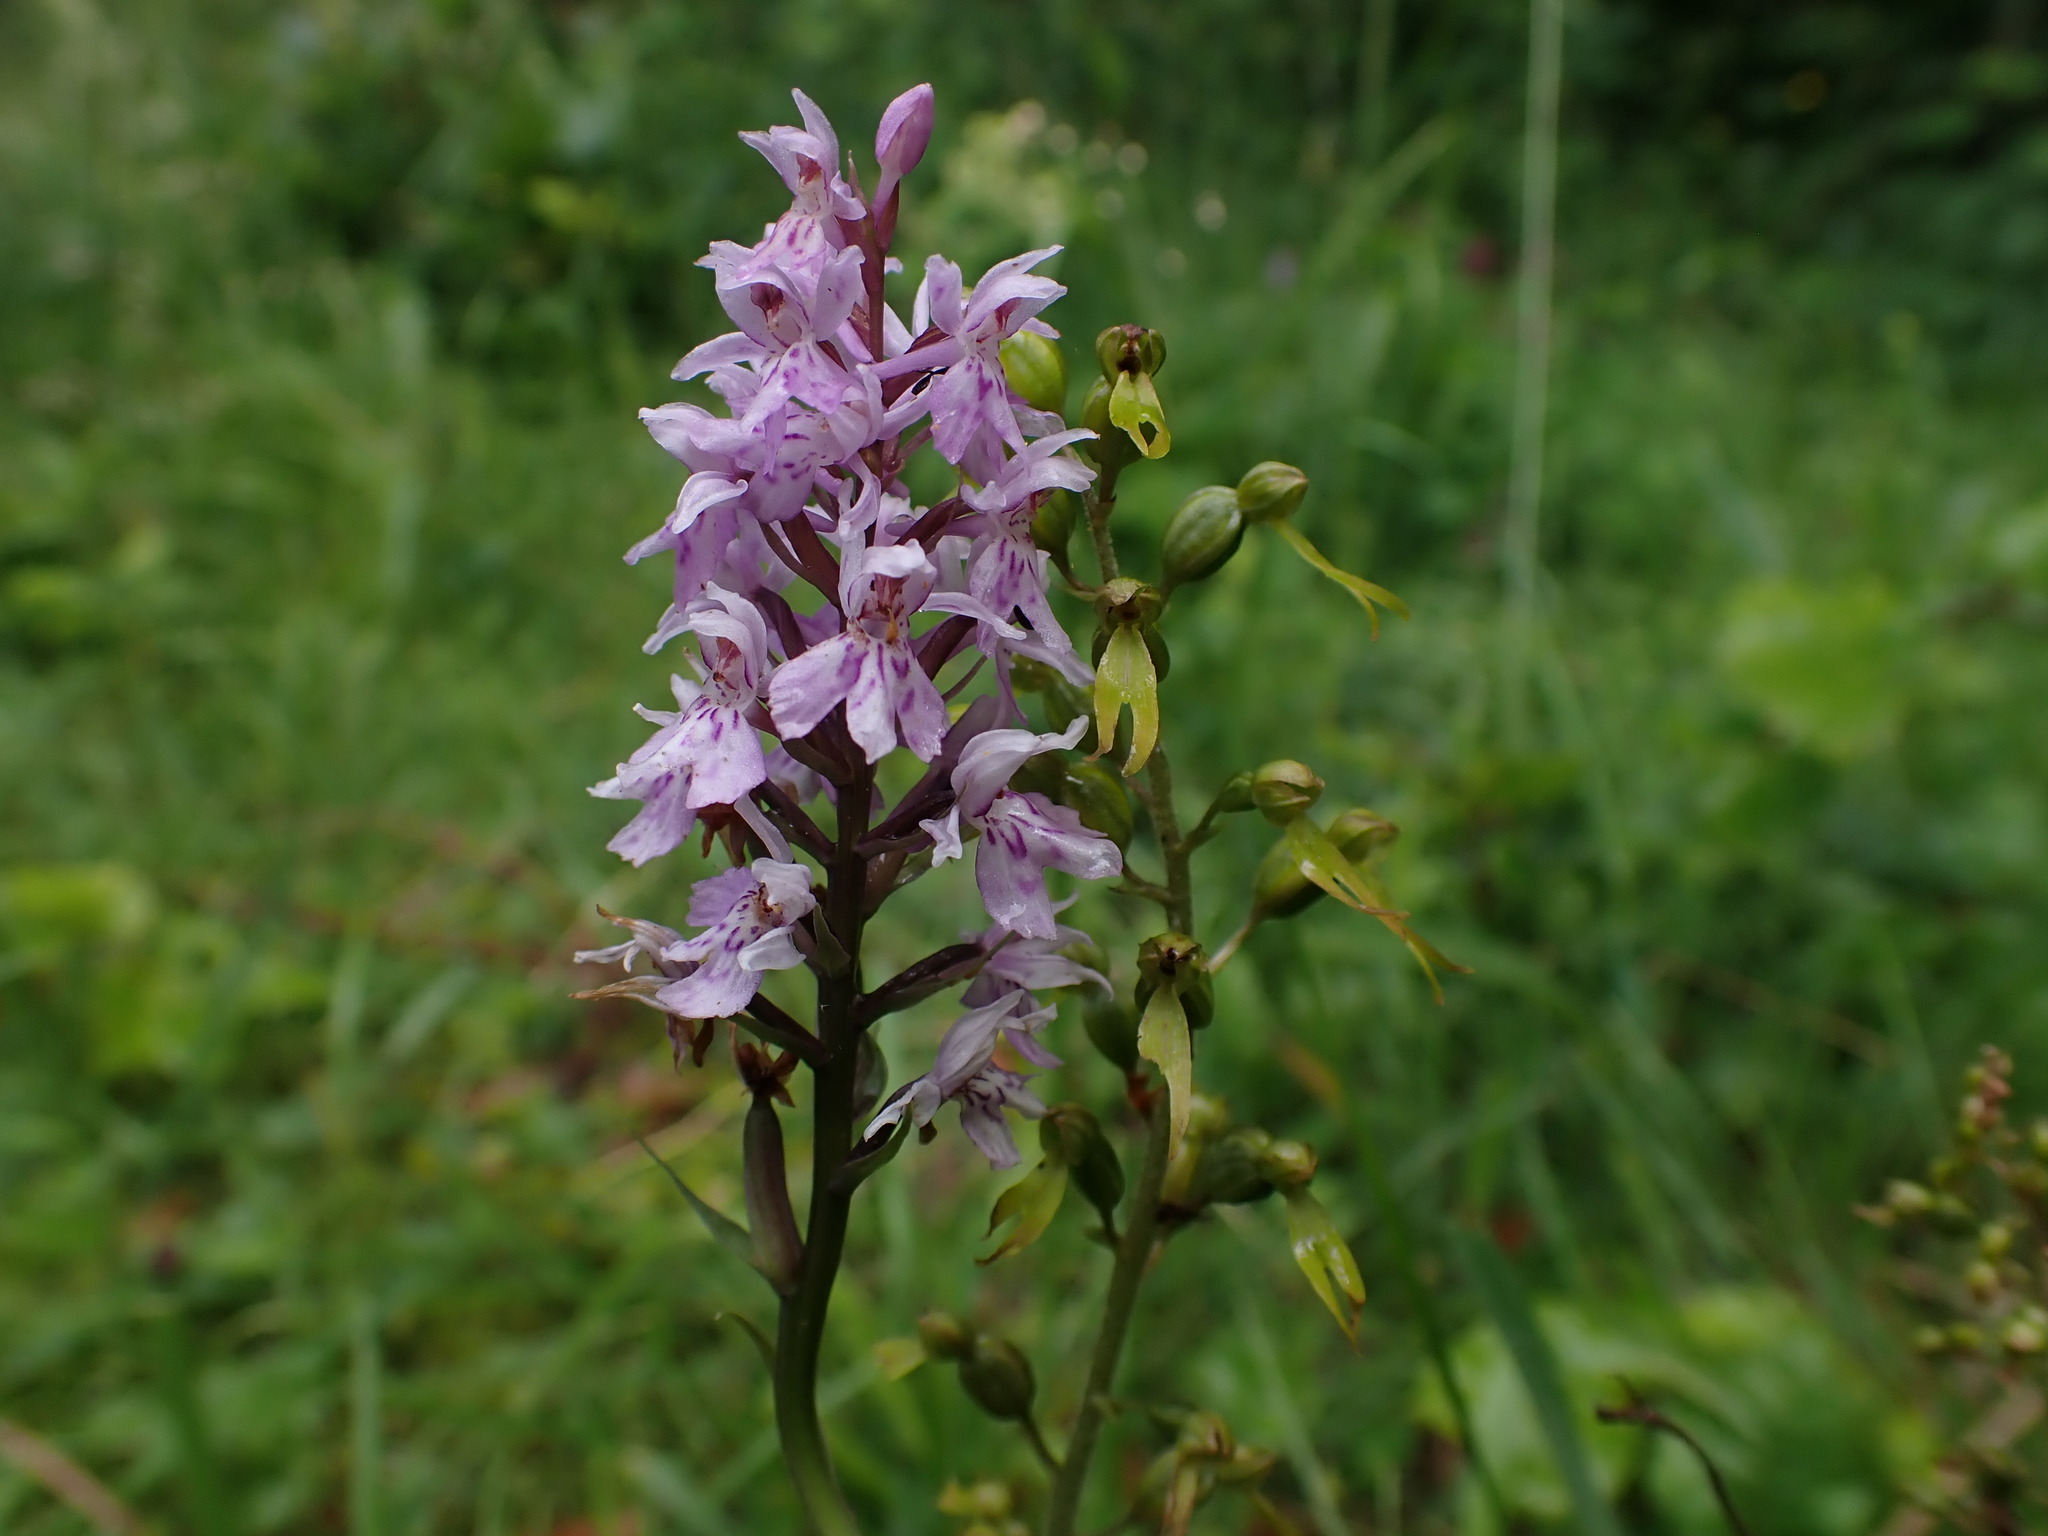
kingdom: Plantae
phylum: Tracheophyta
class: Liliopsida
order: Asparagales
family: Orchidaceae
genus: Neottia
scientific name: Neottia ovata
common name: Common twayblade
